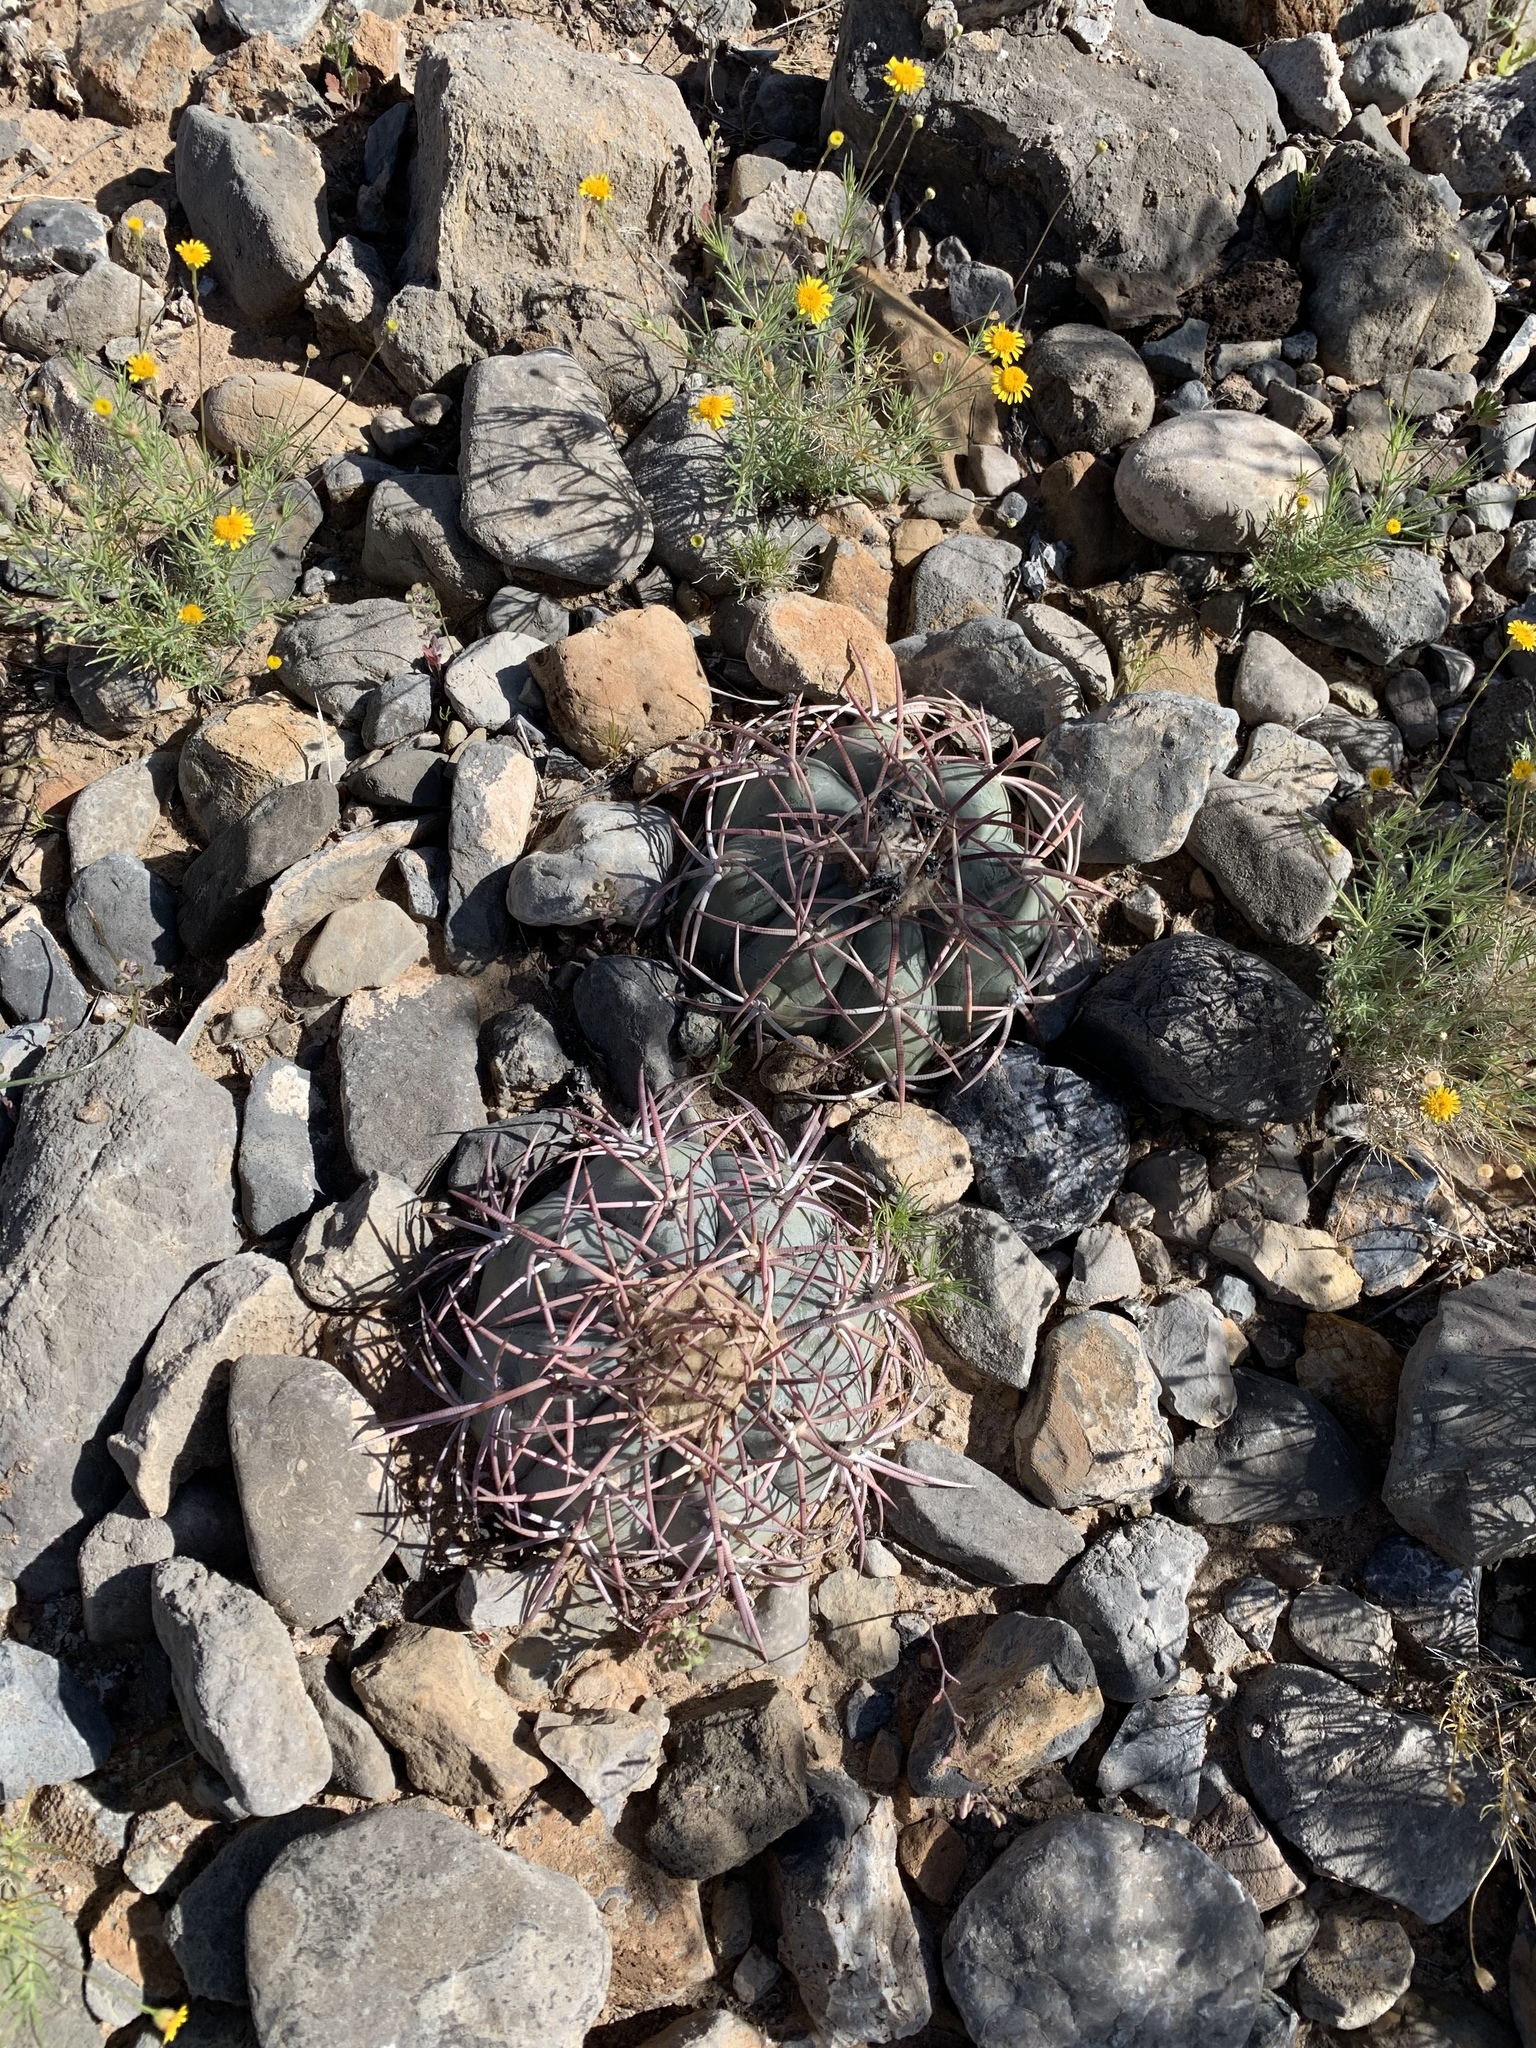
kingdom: Plantae
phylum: Tracheophyta
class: Magnoliopsida
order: Caryophyllales
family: Cactaceae
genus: Echinocactus
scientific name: Echinocactus horizonthalonius
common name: Devilshead
